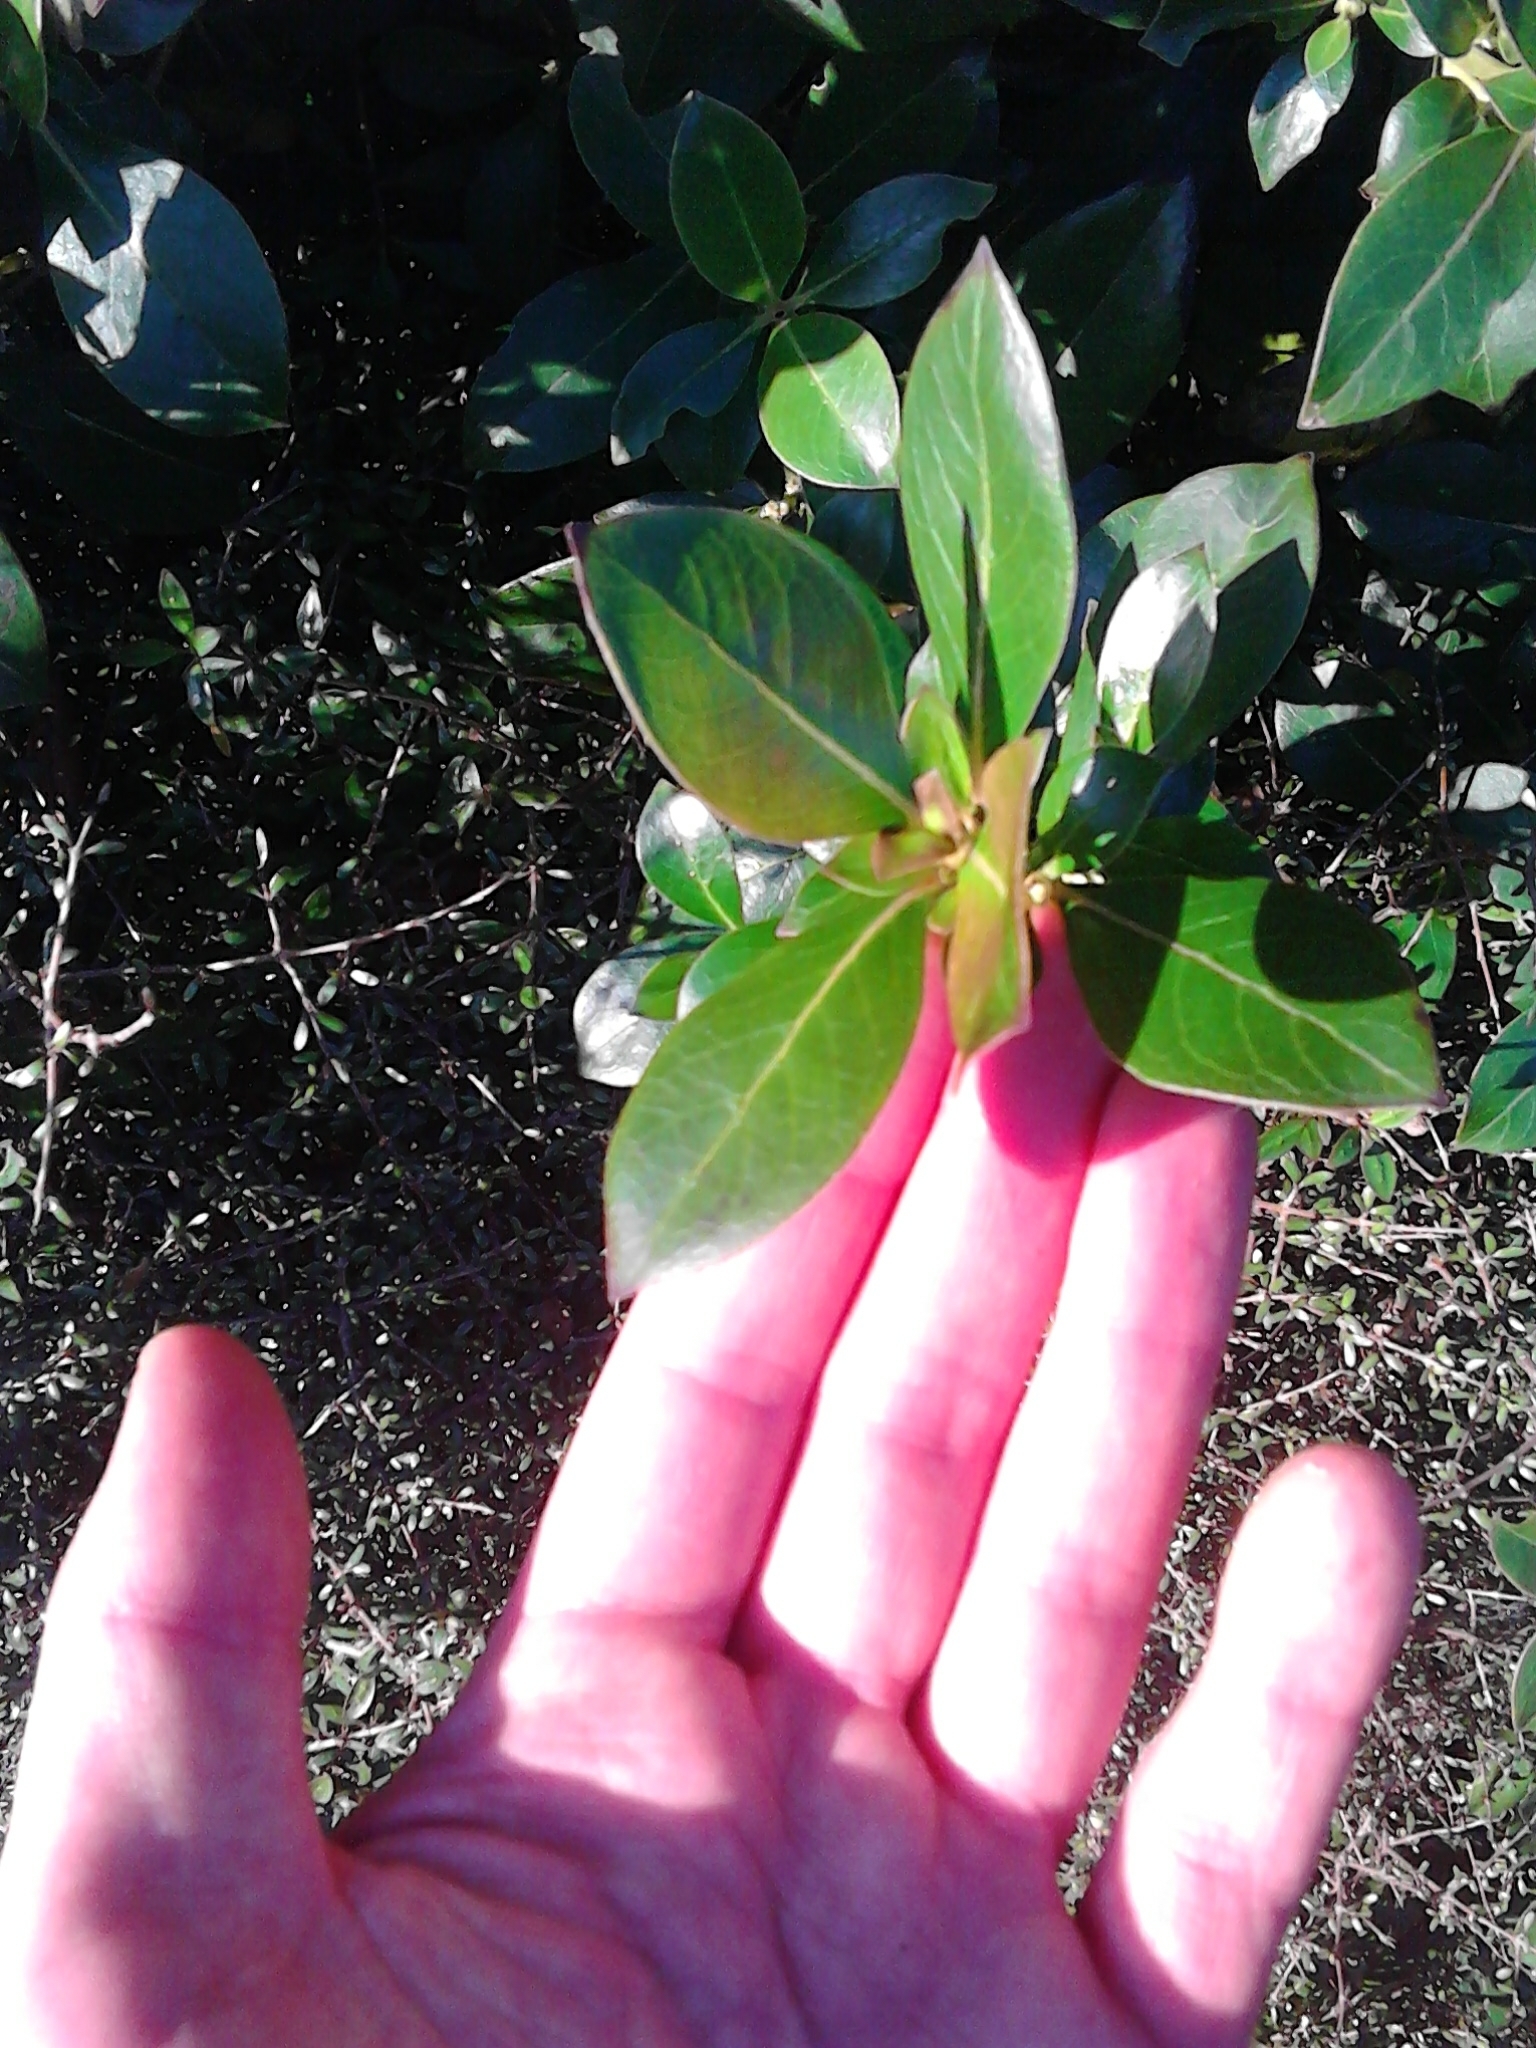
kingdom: Plantae
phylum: Tracheophyta
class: Magnoliopsida
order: Gentianales
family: Rubiaceae
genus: Coprosma
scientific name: Coprosma robusta
